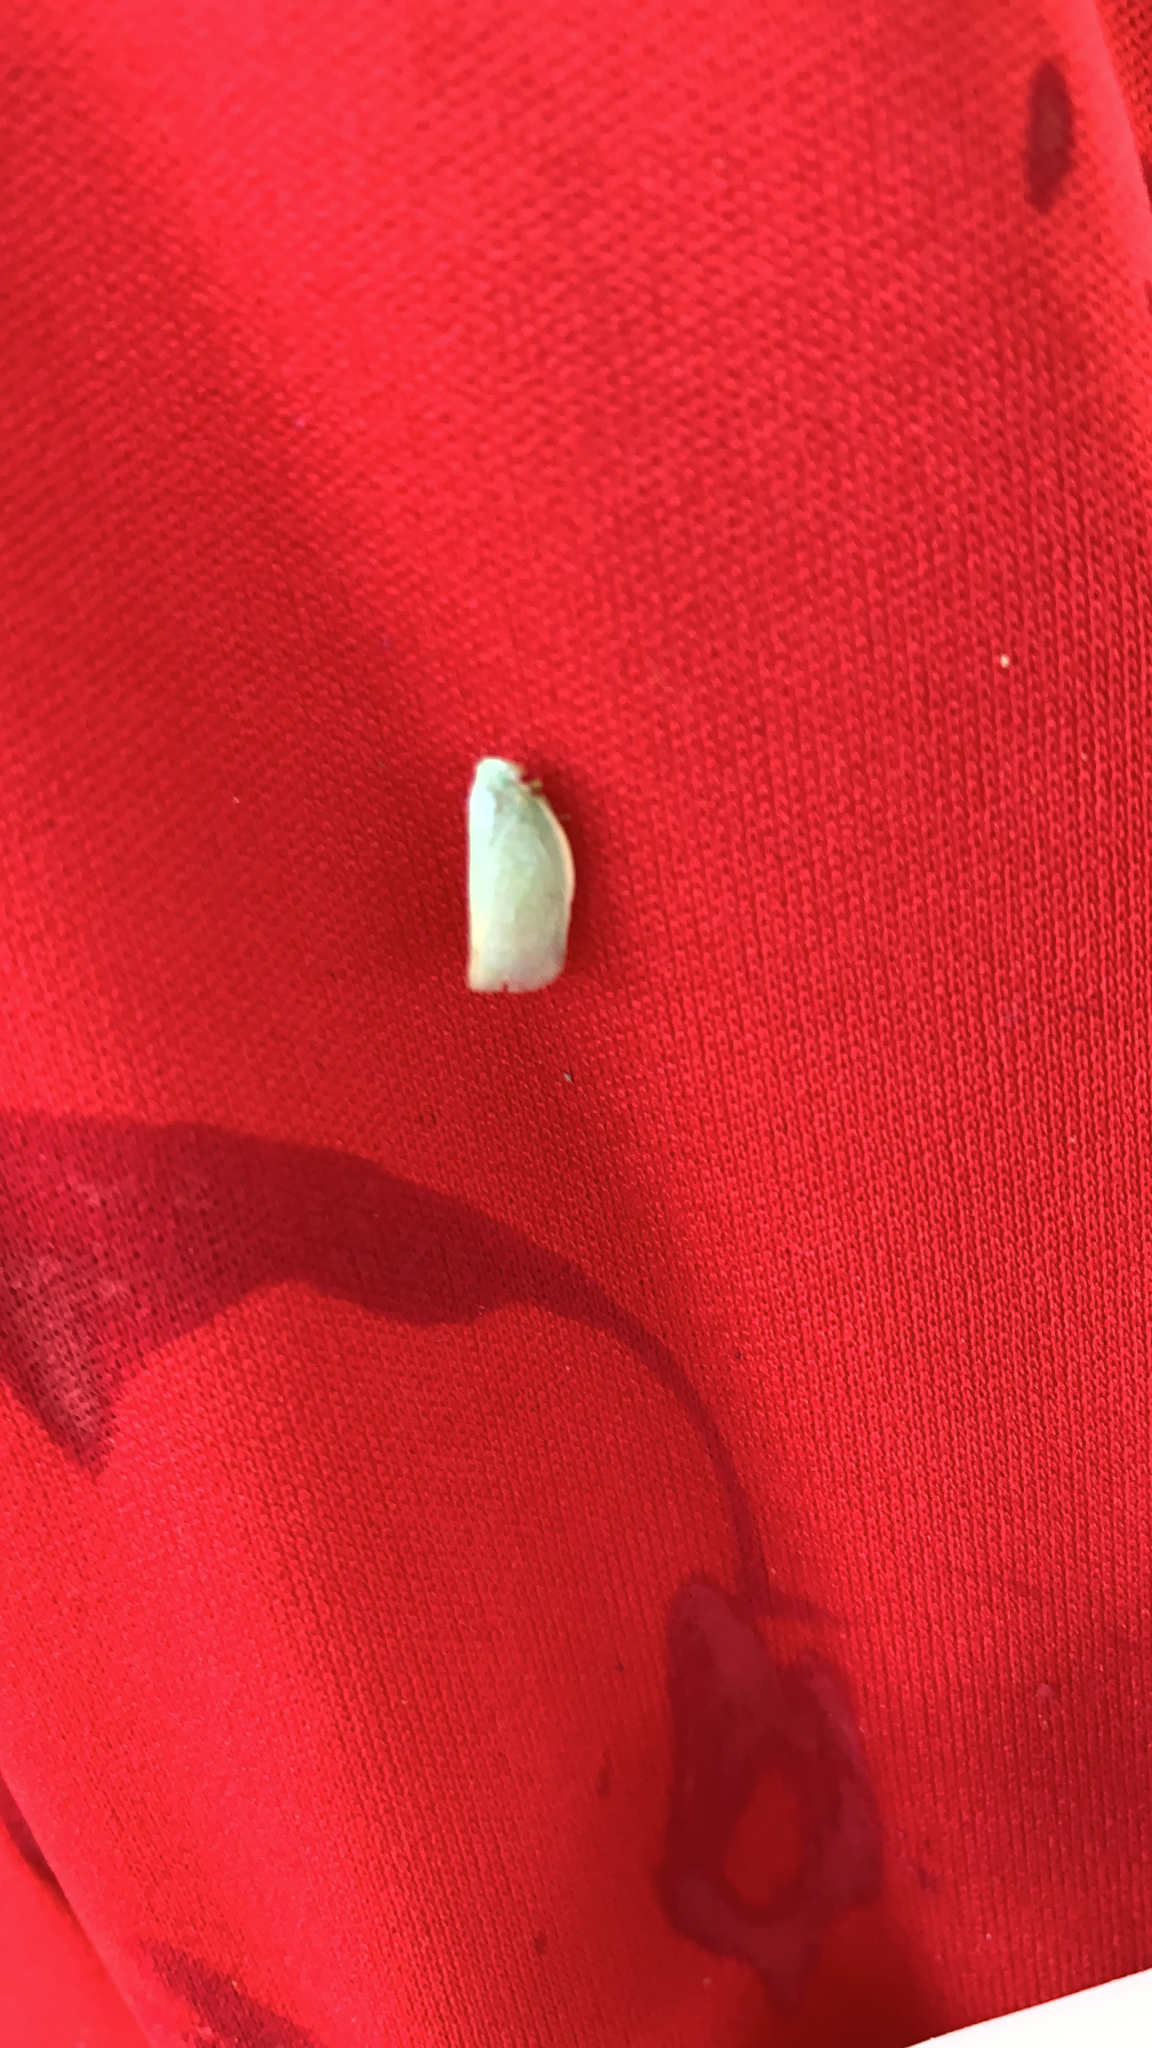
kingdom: Animalia
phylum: Arthropoda
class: Insecta
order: Hemiptera
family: Flatidae
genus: Flatormenis
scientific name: Flatormenis proxima
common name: Northern flatid planthopper
